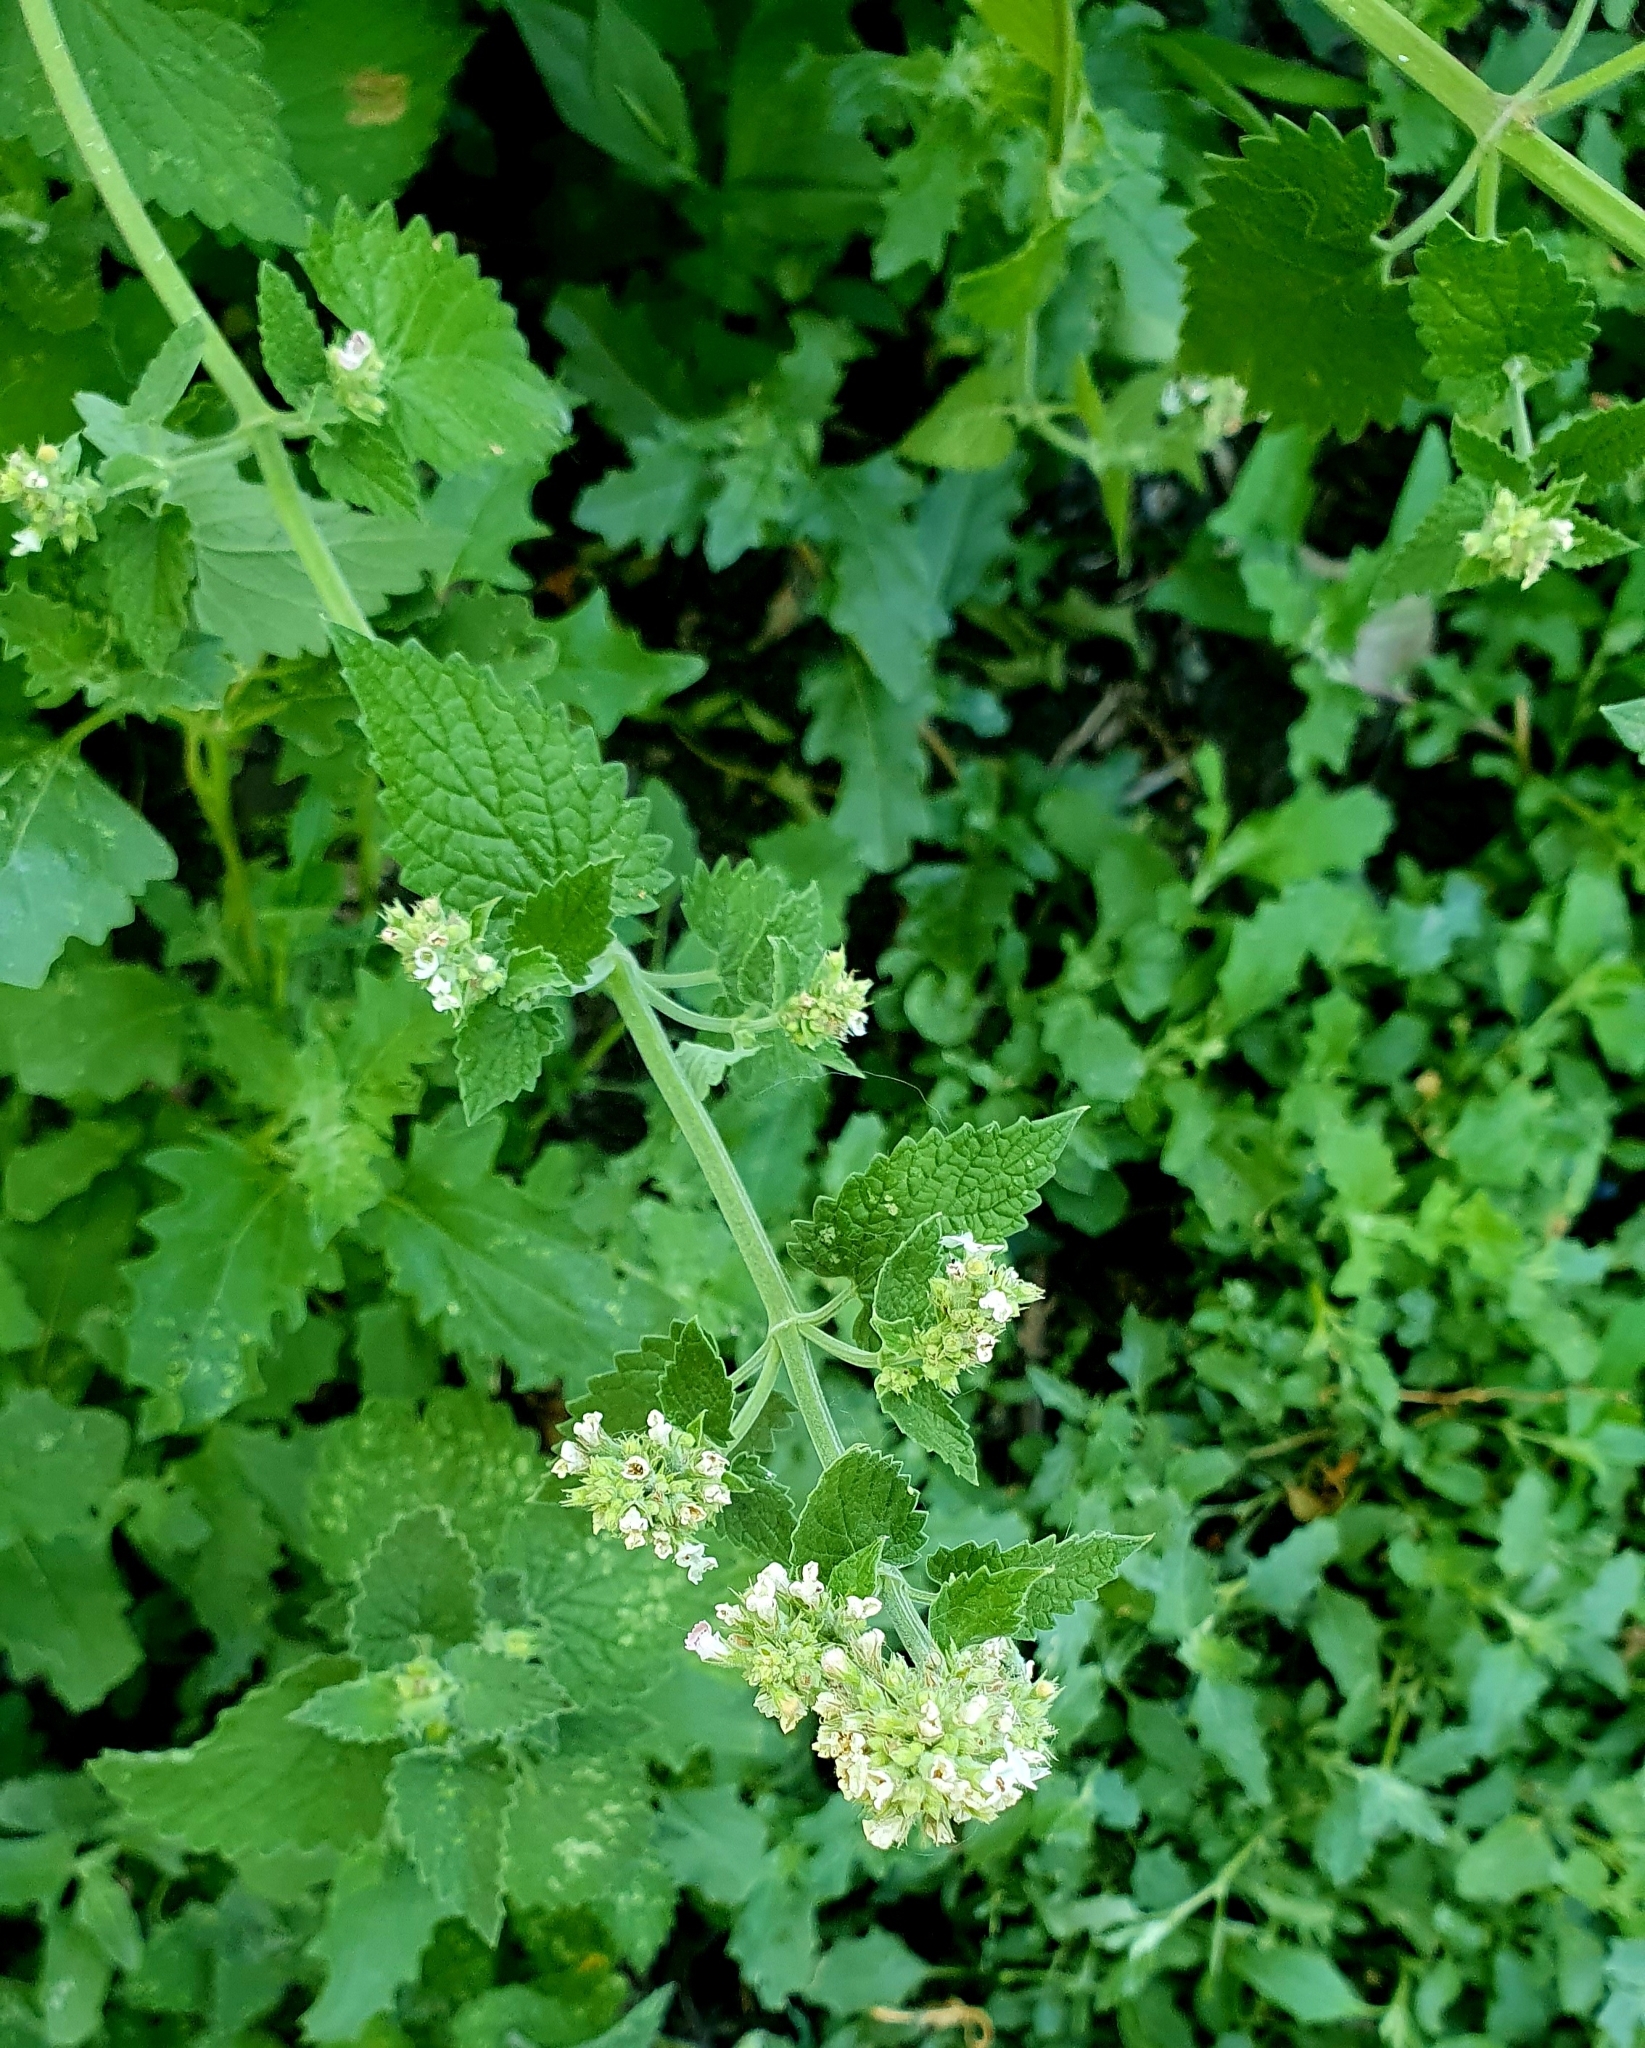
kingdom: Plantae
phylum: Tracheophyta
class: Magnoliopsida
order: Lamiales
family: Lamiaceae
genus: Nepeta
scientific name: Nepeta cataria
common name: Catnip
